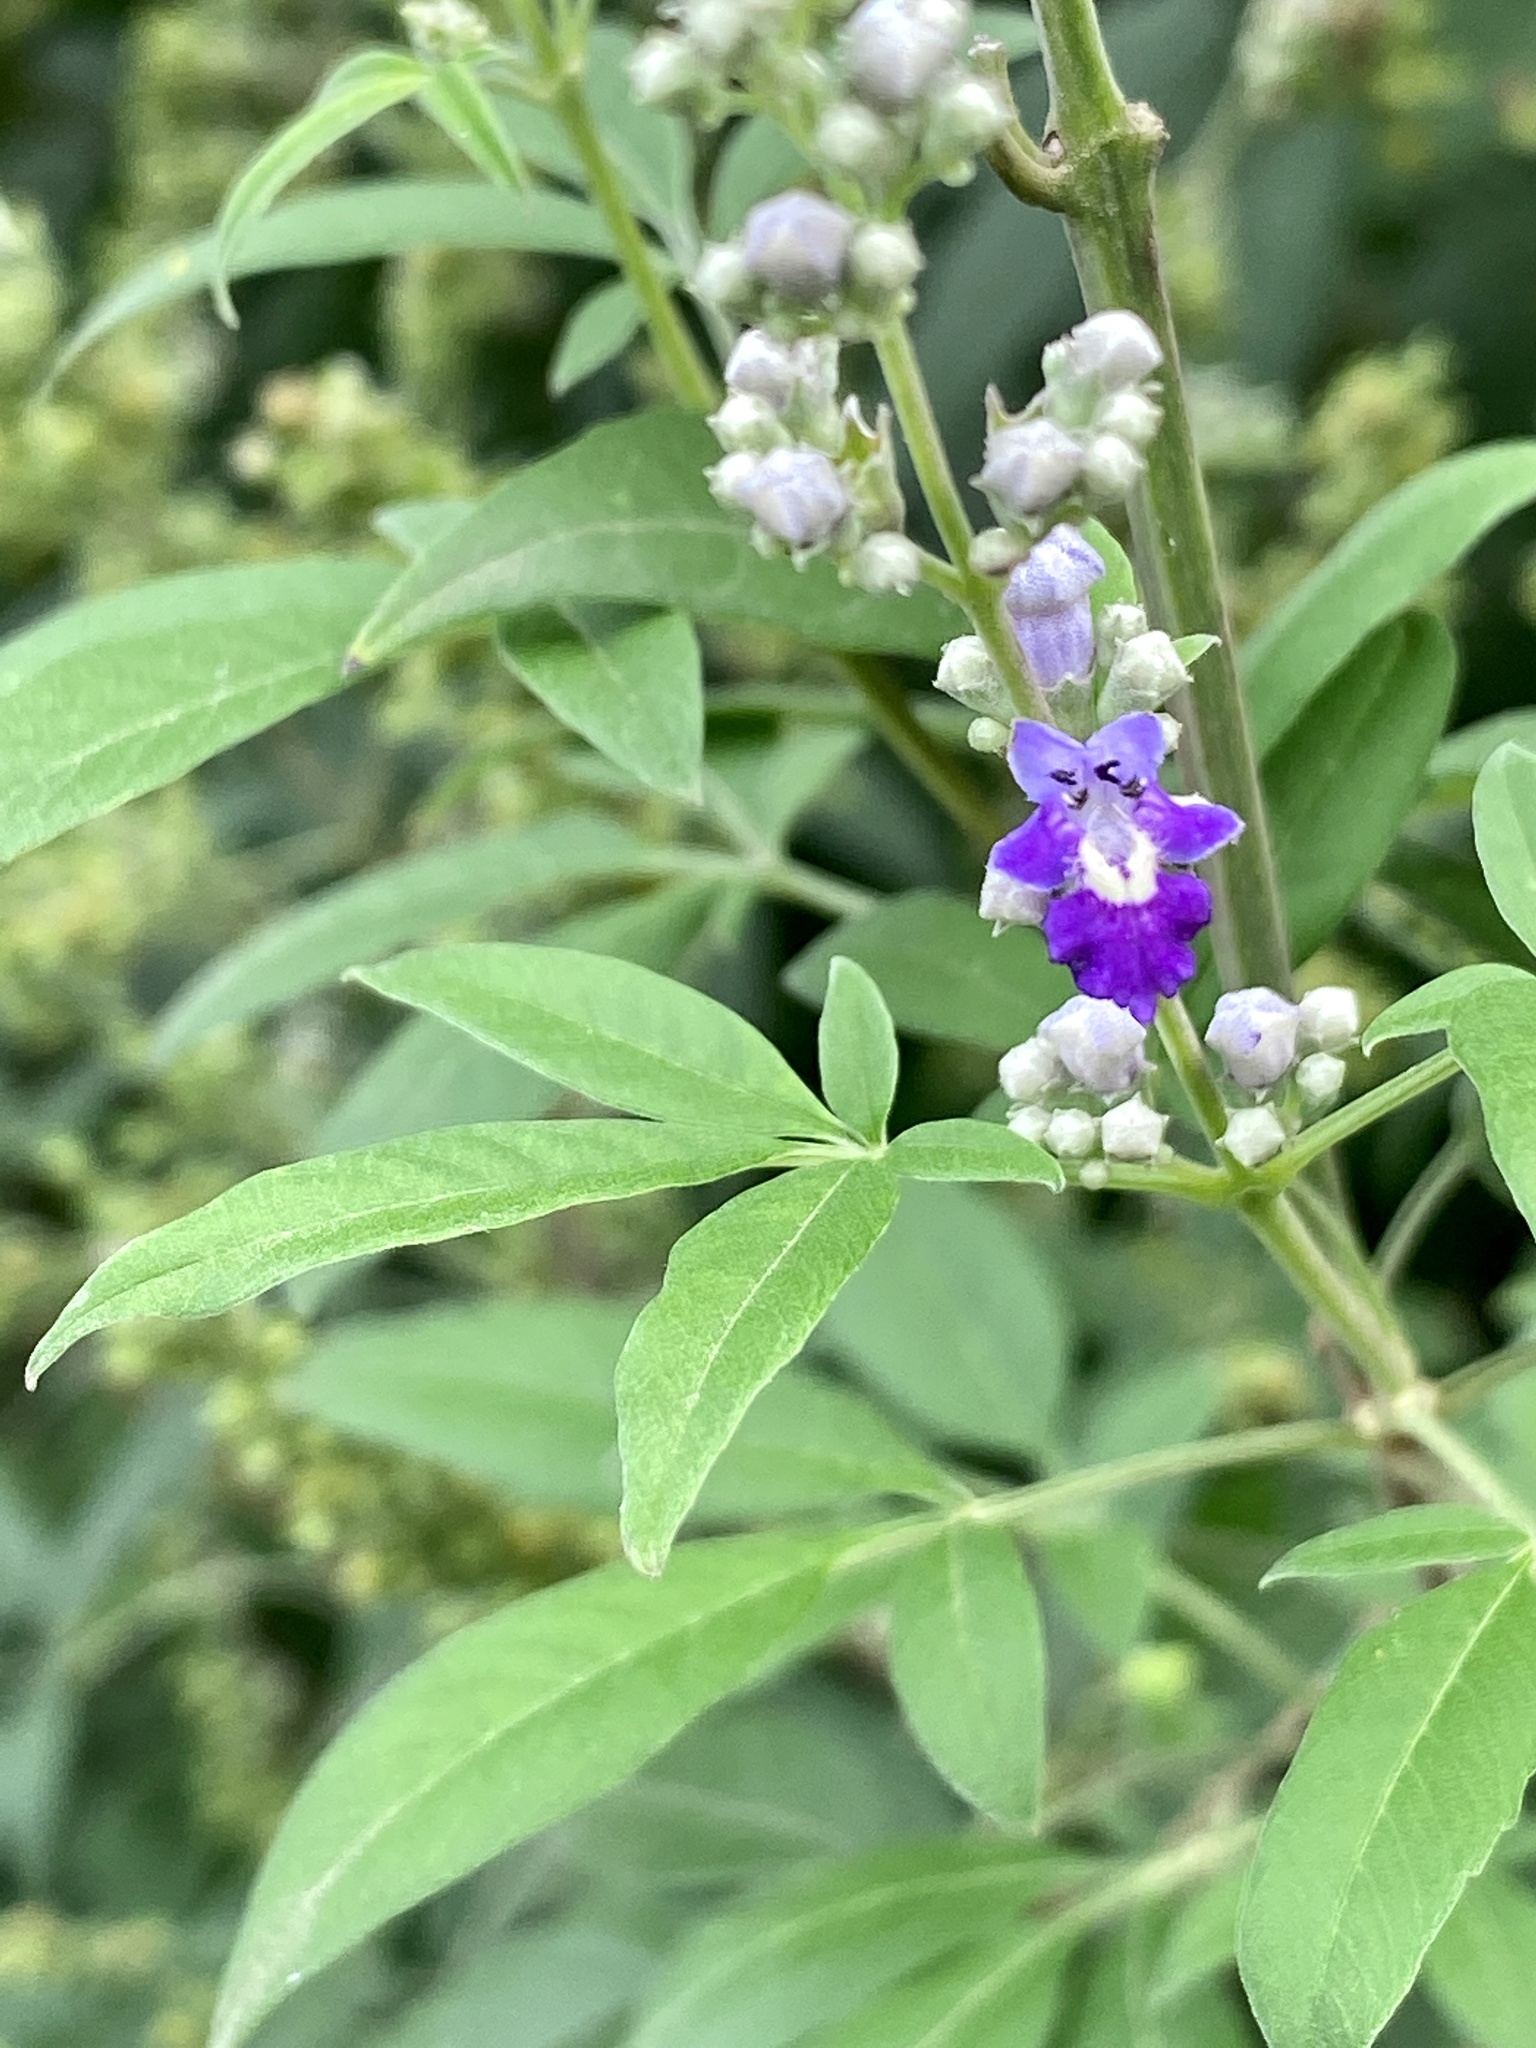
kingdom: Plantae
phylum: Tracheophyta
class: Magnoliopsida
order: Lamiales
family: Lamiaceae
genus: Vitex
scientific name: Vitex negundo
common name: Chinese chastetree
